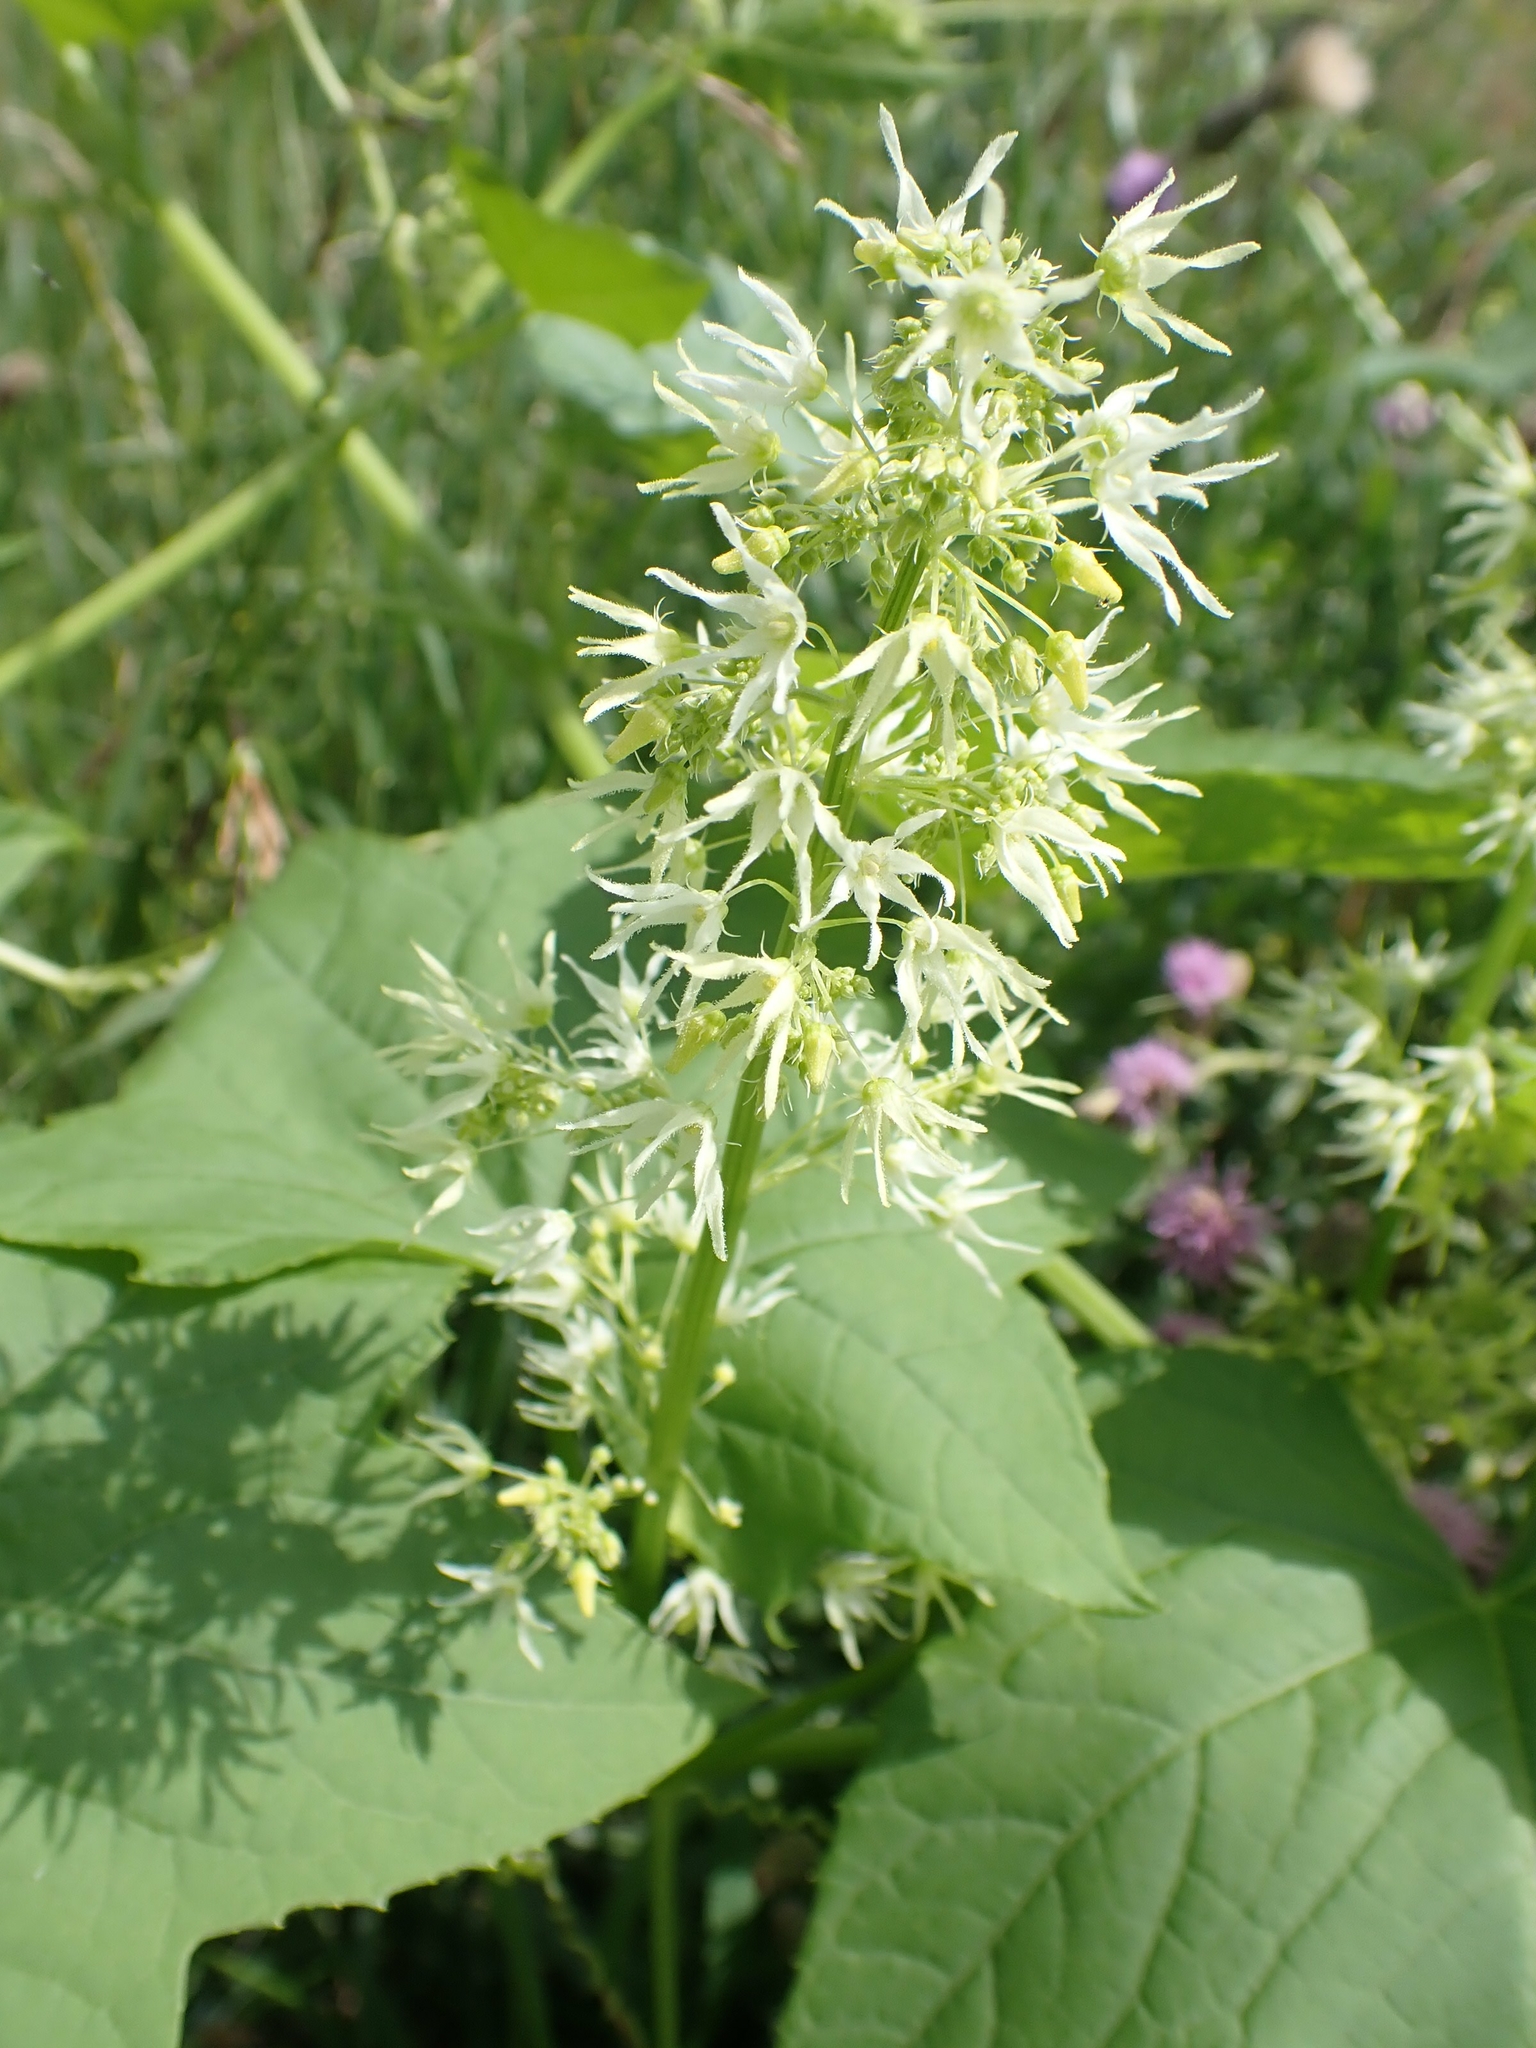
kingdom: Plantae
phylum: Tracheophyta
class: Magnoliopsida
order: Cucurbitales
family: Cucurbitaceae
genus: Echinocystis
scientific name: Echinocystis lobata
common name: Wild cucumber
